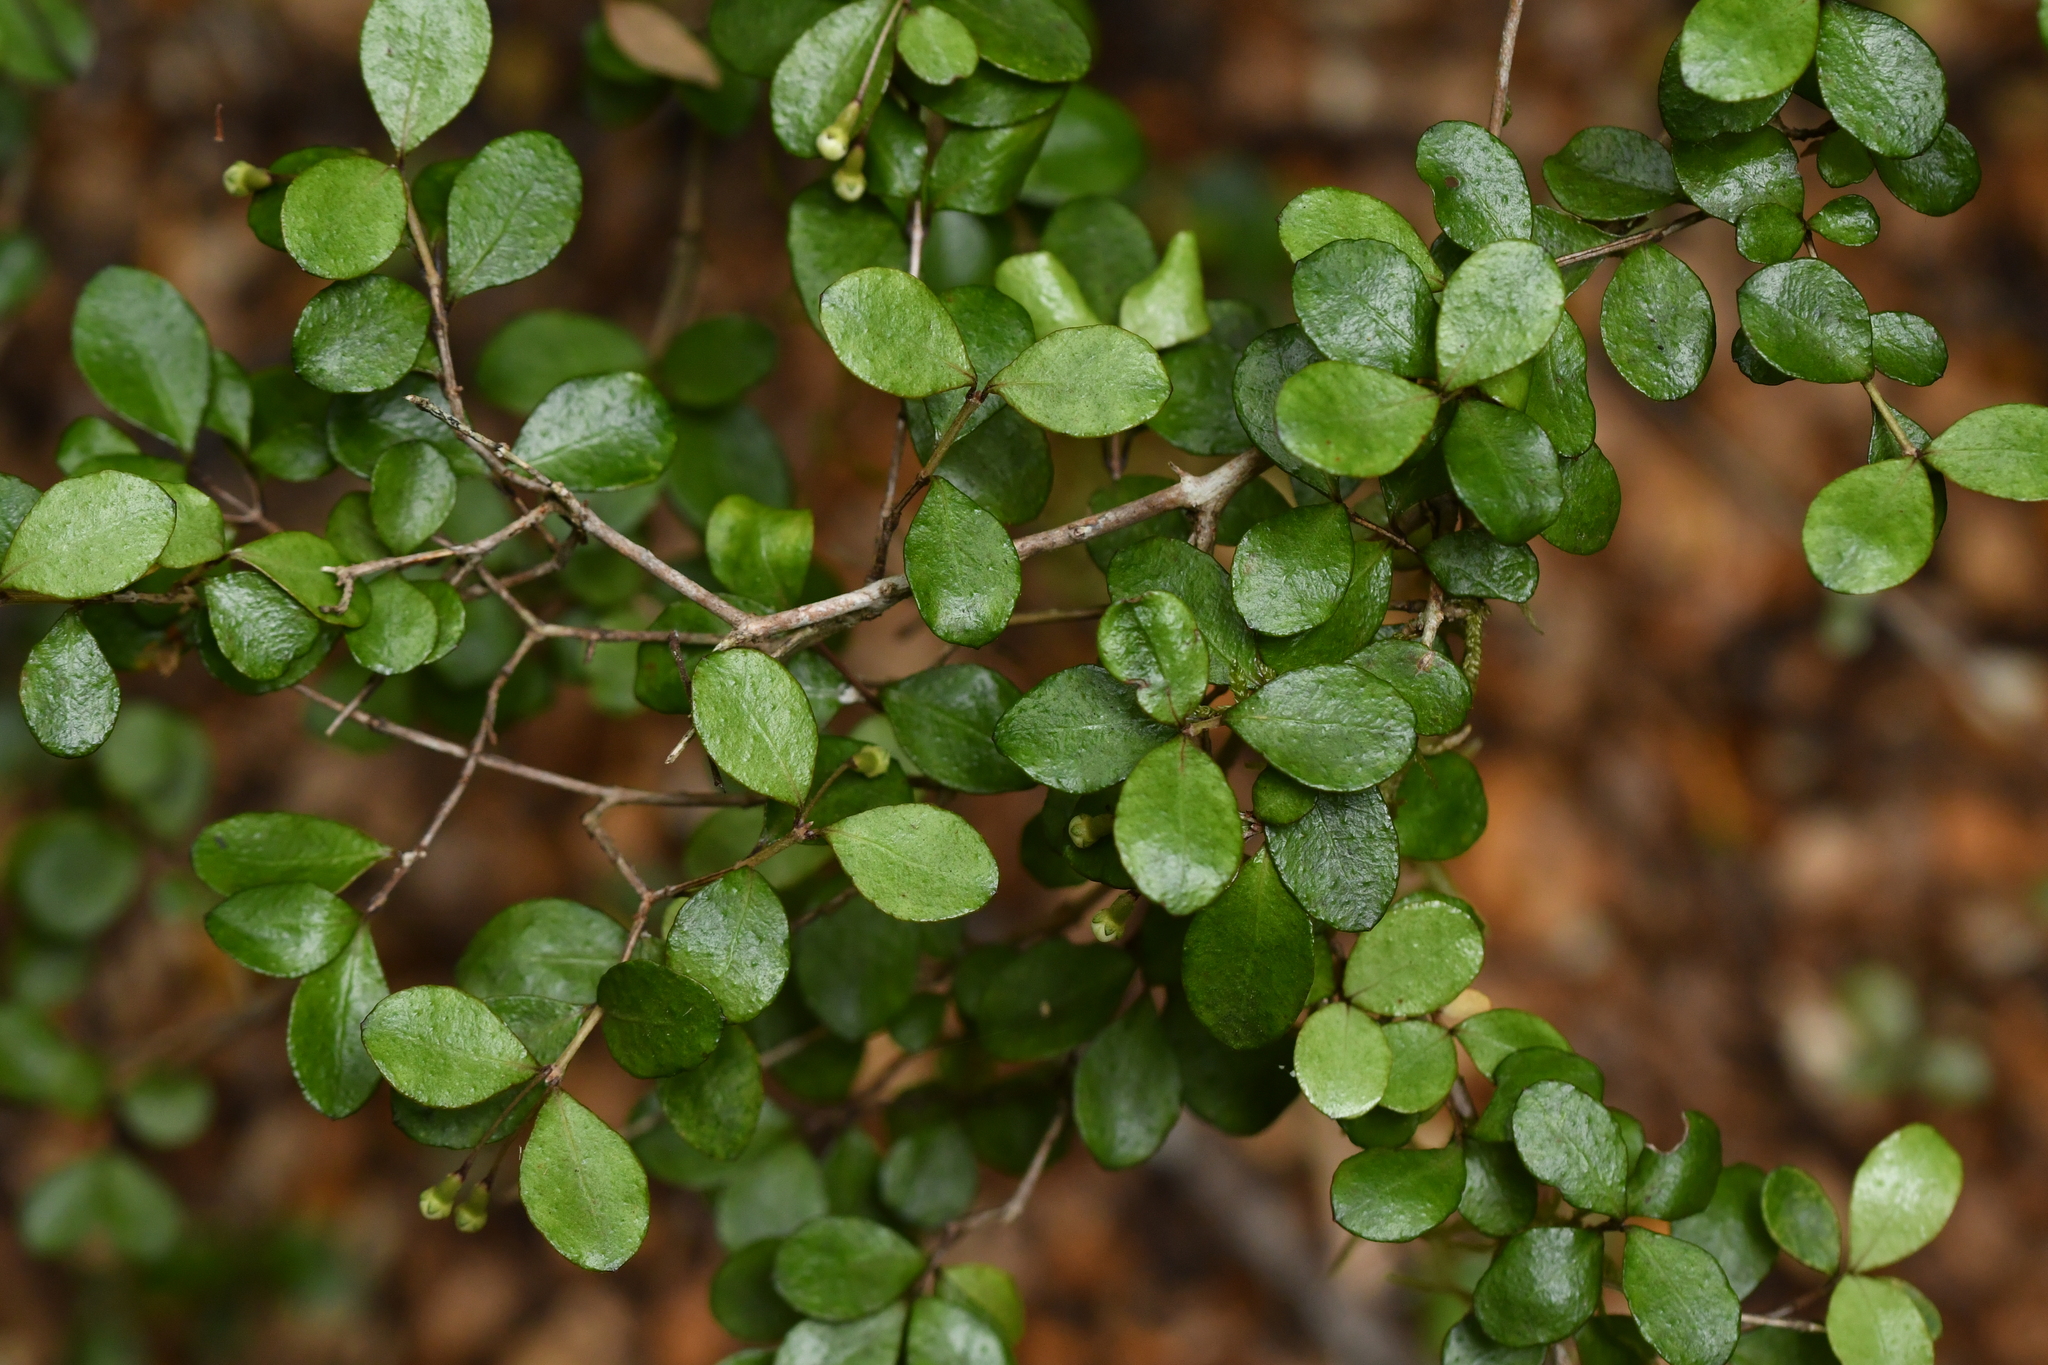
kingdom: Plantae
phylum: Tracheophyta
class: Magnoliopsida
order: Myrtales
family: Myrtaceae
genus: Neomyrtus
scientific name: Neomyrtus pedunculata
